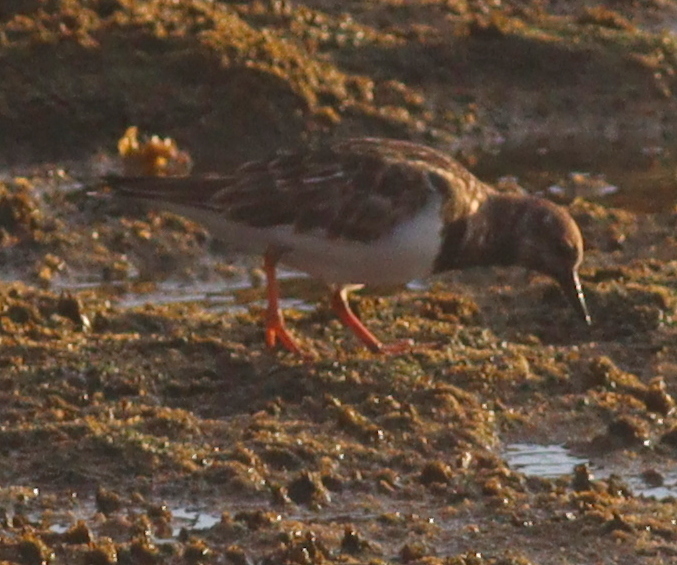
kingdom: Animalia
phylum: Chordata
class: Aves
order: Charadriiformes
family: Scolopacidae
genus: Arenaria
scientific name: Arenaria interpres
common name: Ruddy turnstone
